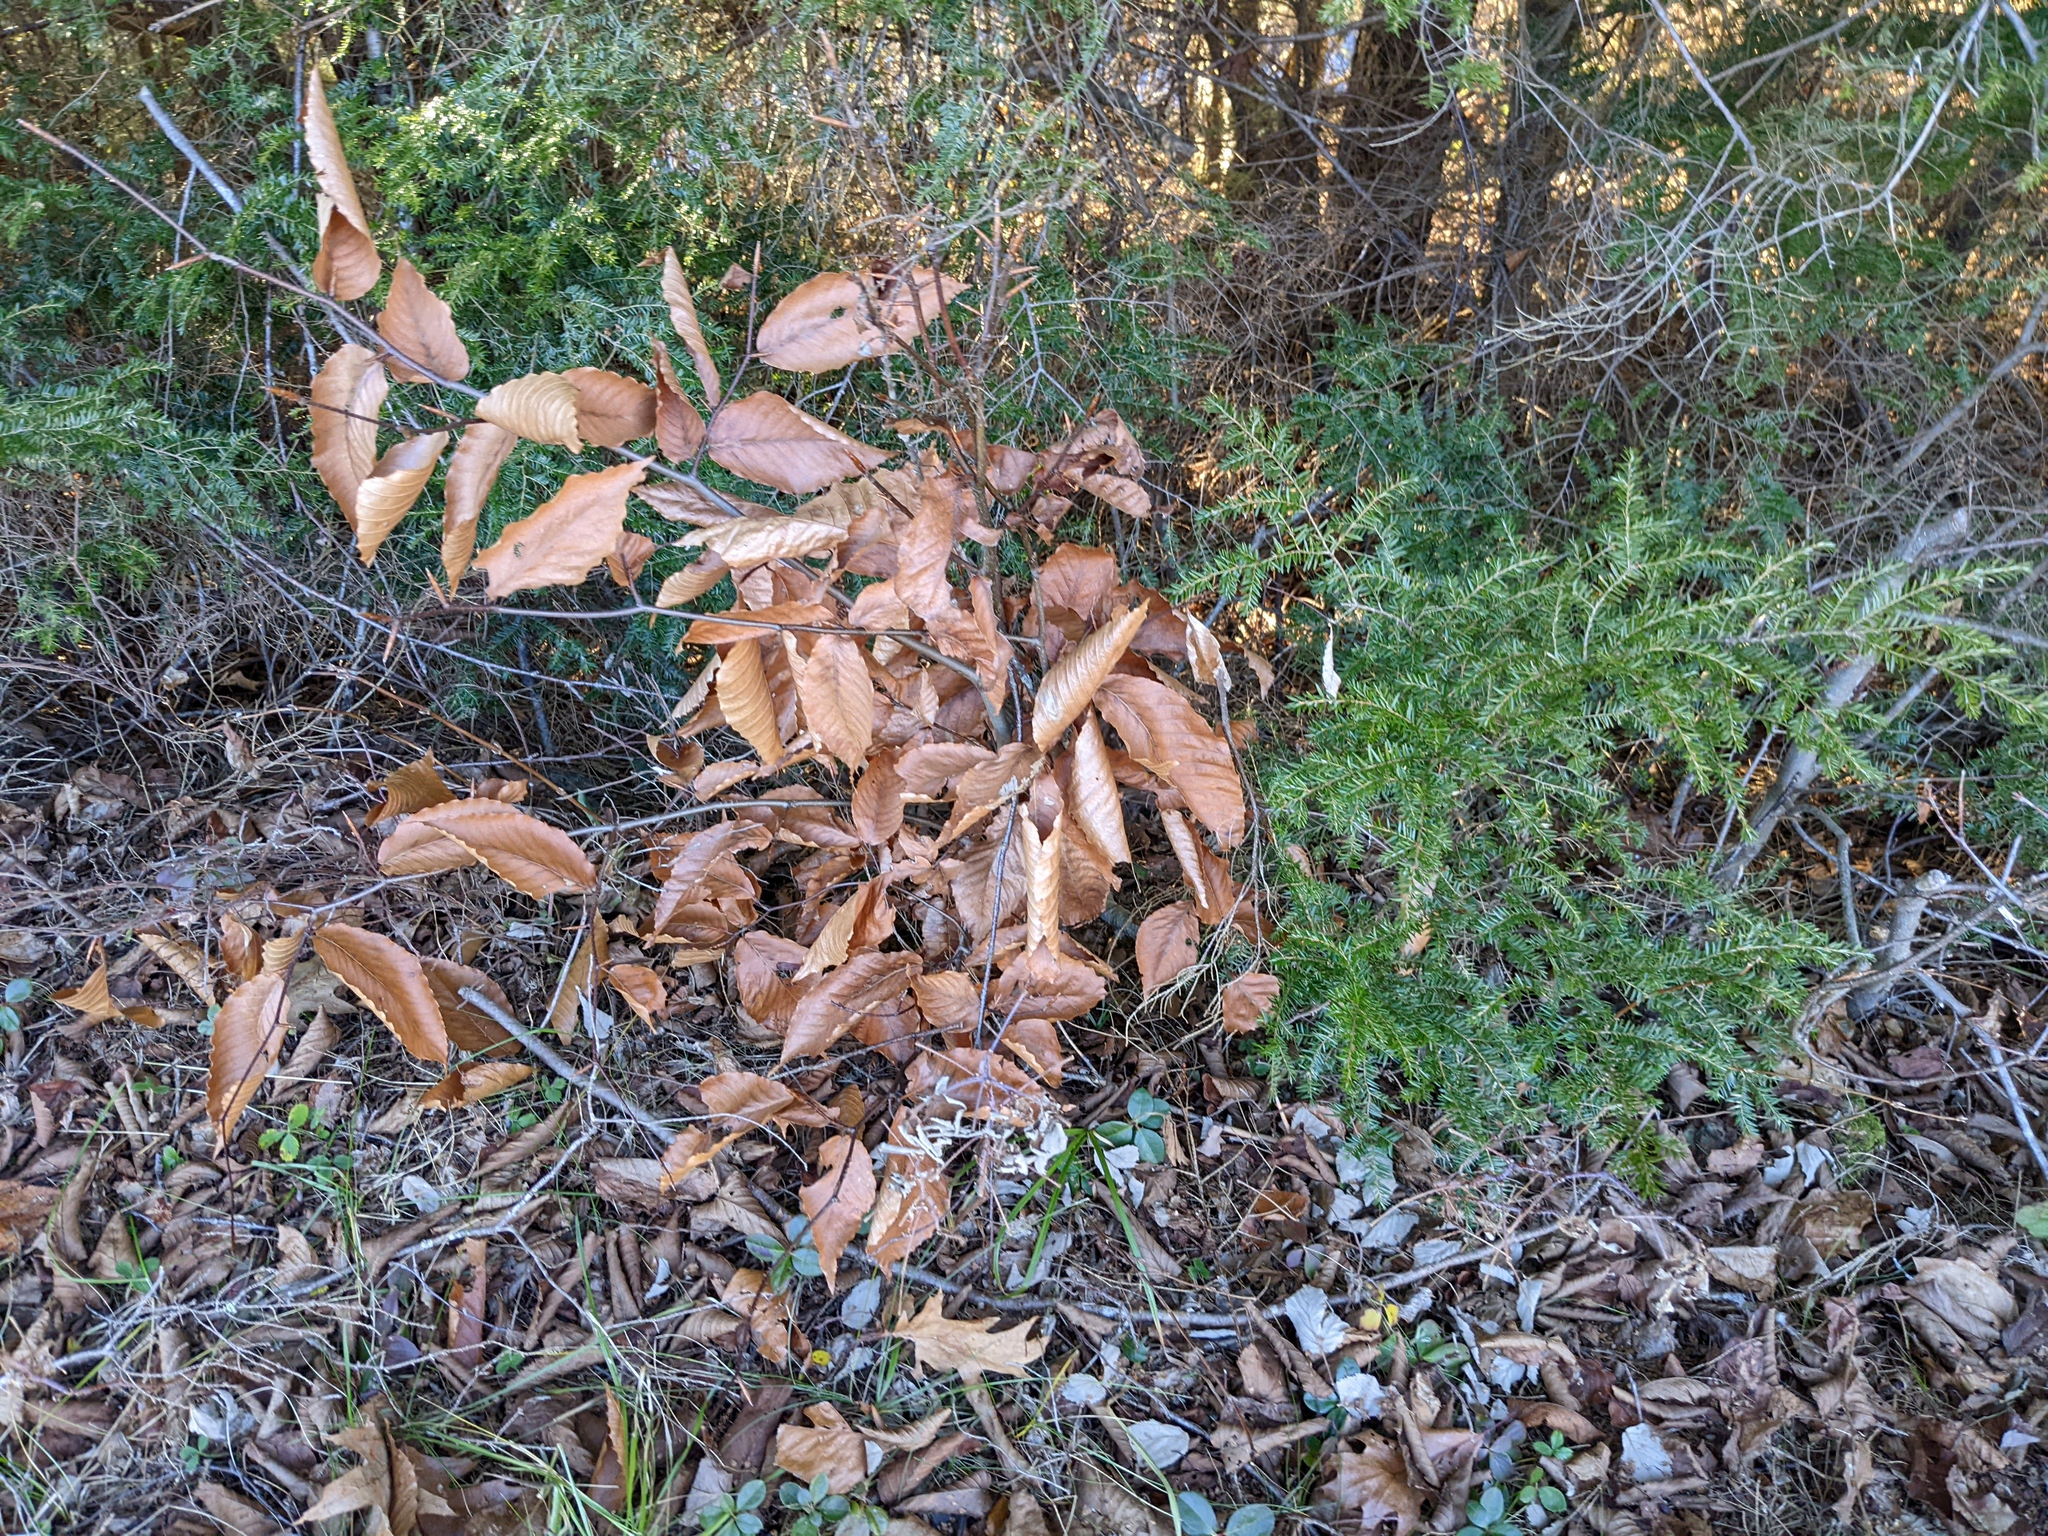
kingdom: Plantae
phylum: Tracheophyta
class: Magnoliopsida
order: Fagales
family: Fagaceae
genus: Fagus
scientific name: Fagus grandifolia
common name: American beech
